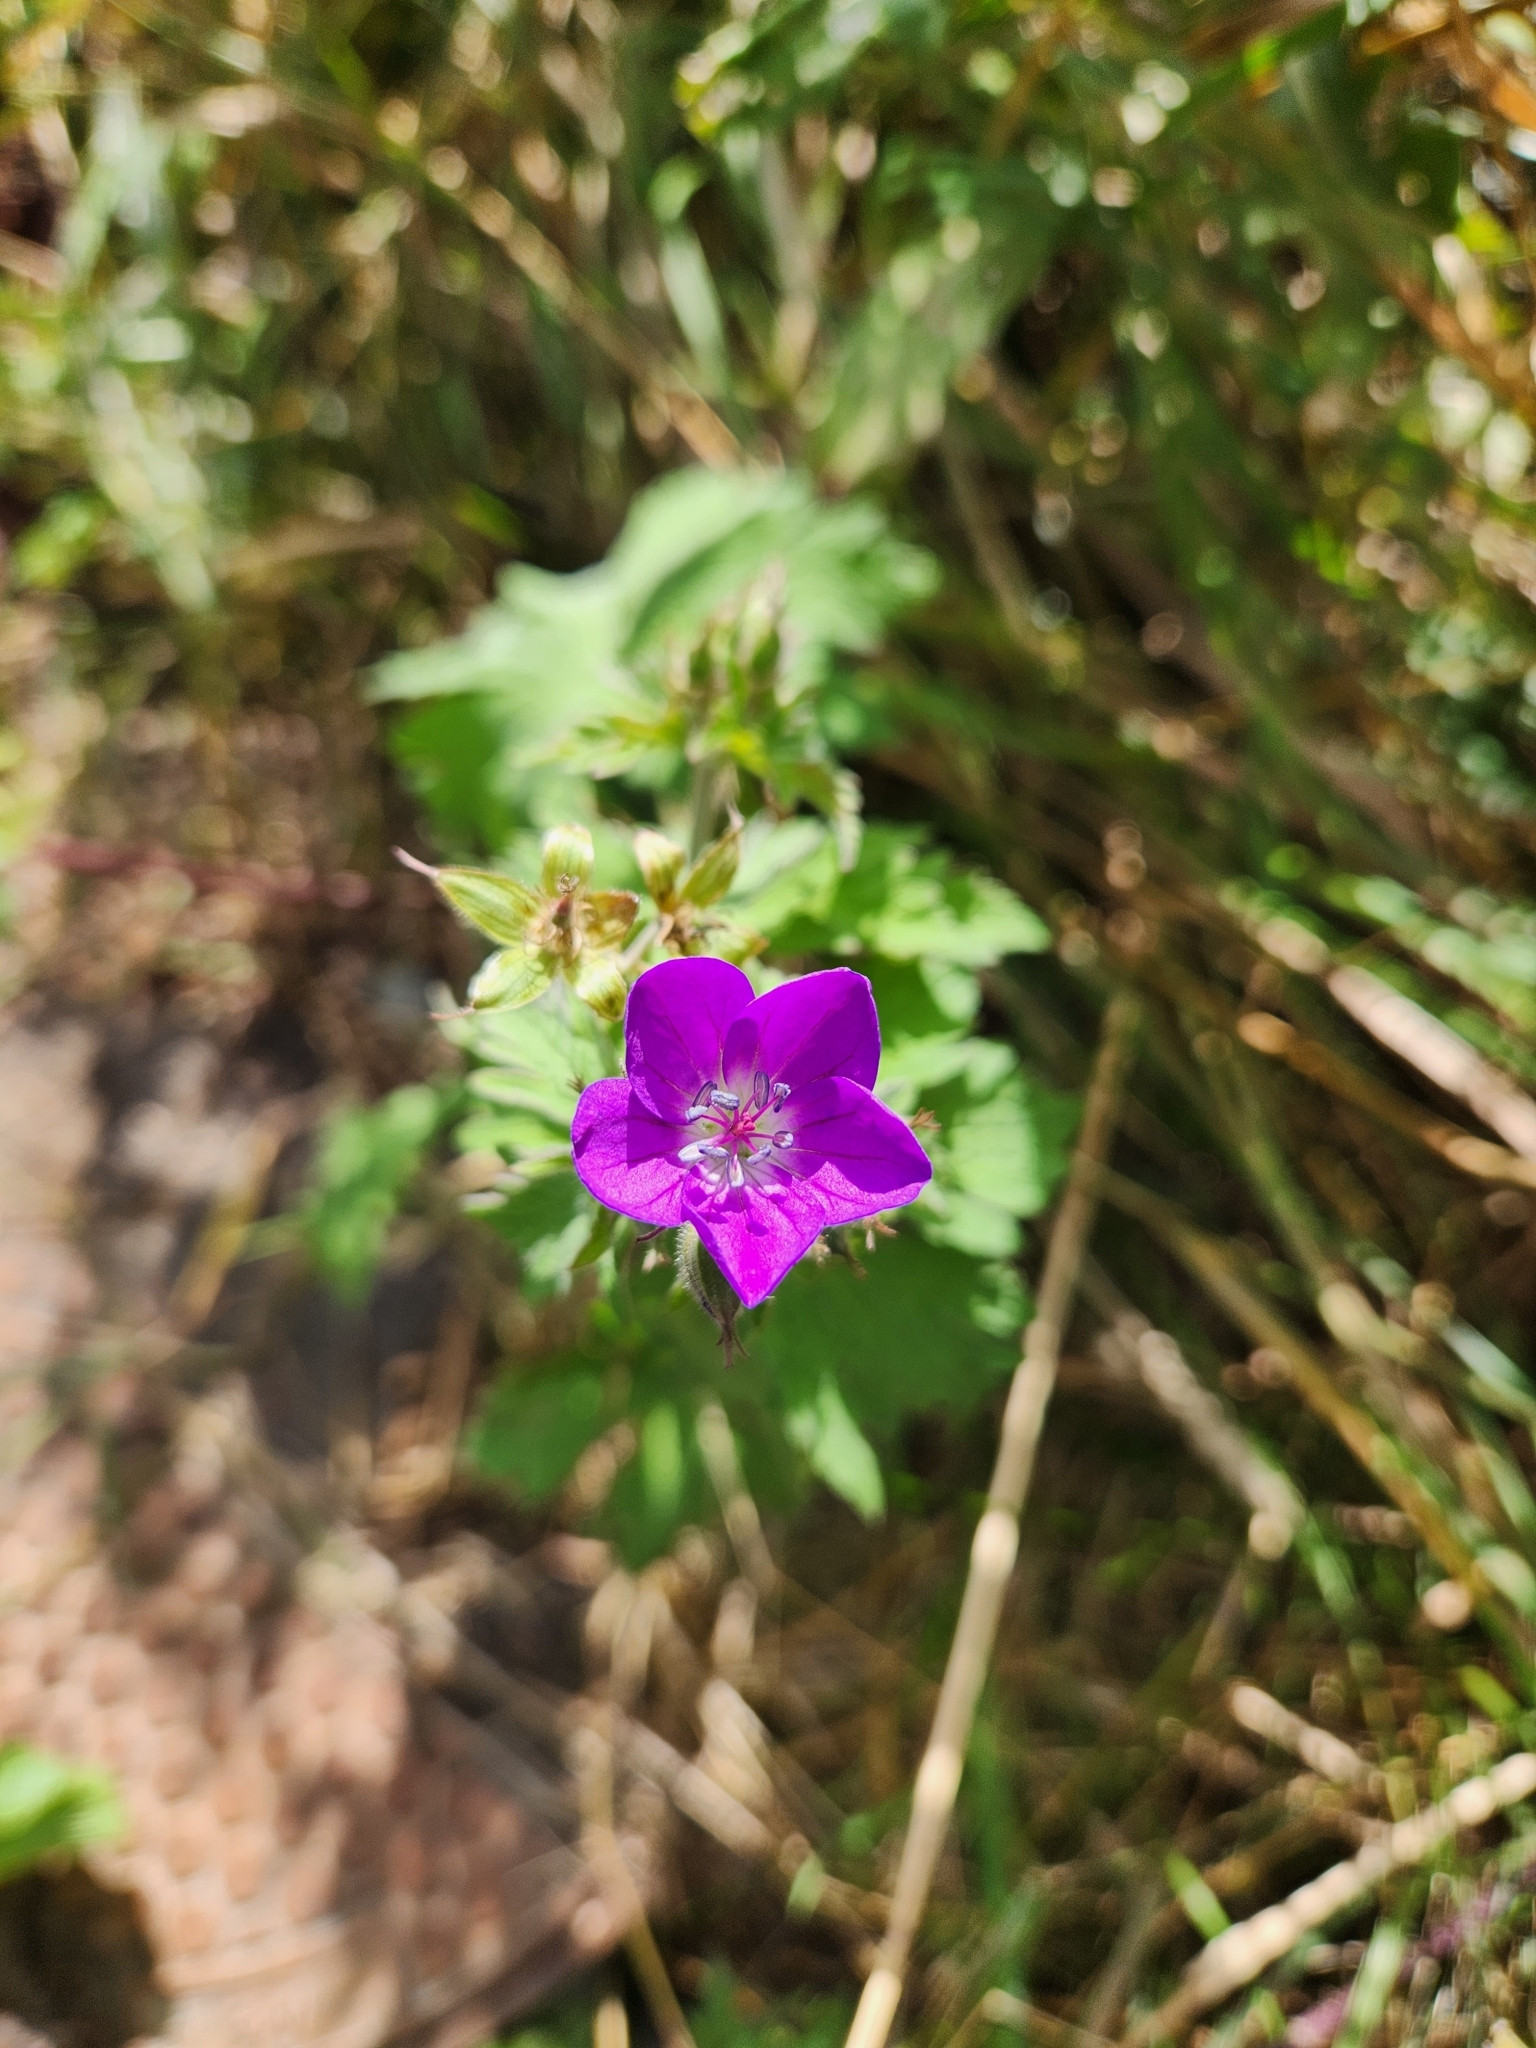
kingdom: Plantae
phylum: Tracheophyta
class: Magnoliopsida
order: Geraniales
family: Geraniaceae
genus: Geranium
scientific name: Geranium sylvaticum
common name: Wood crane's-bill
